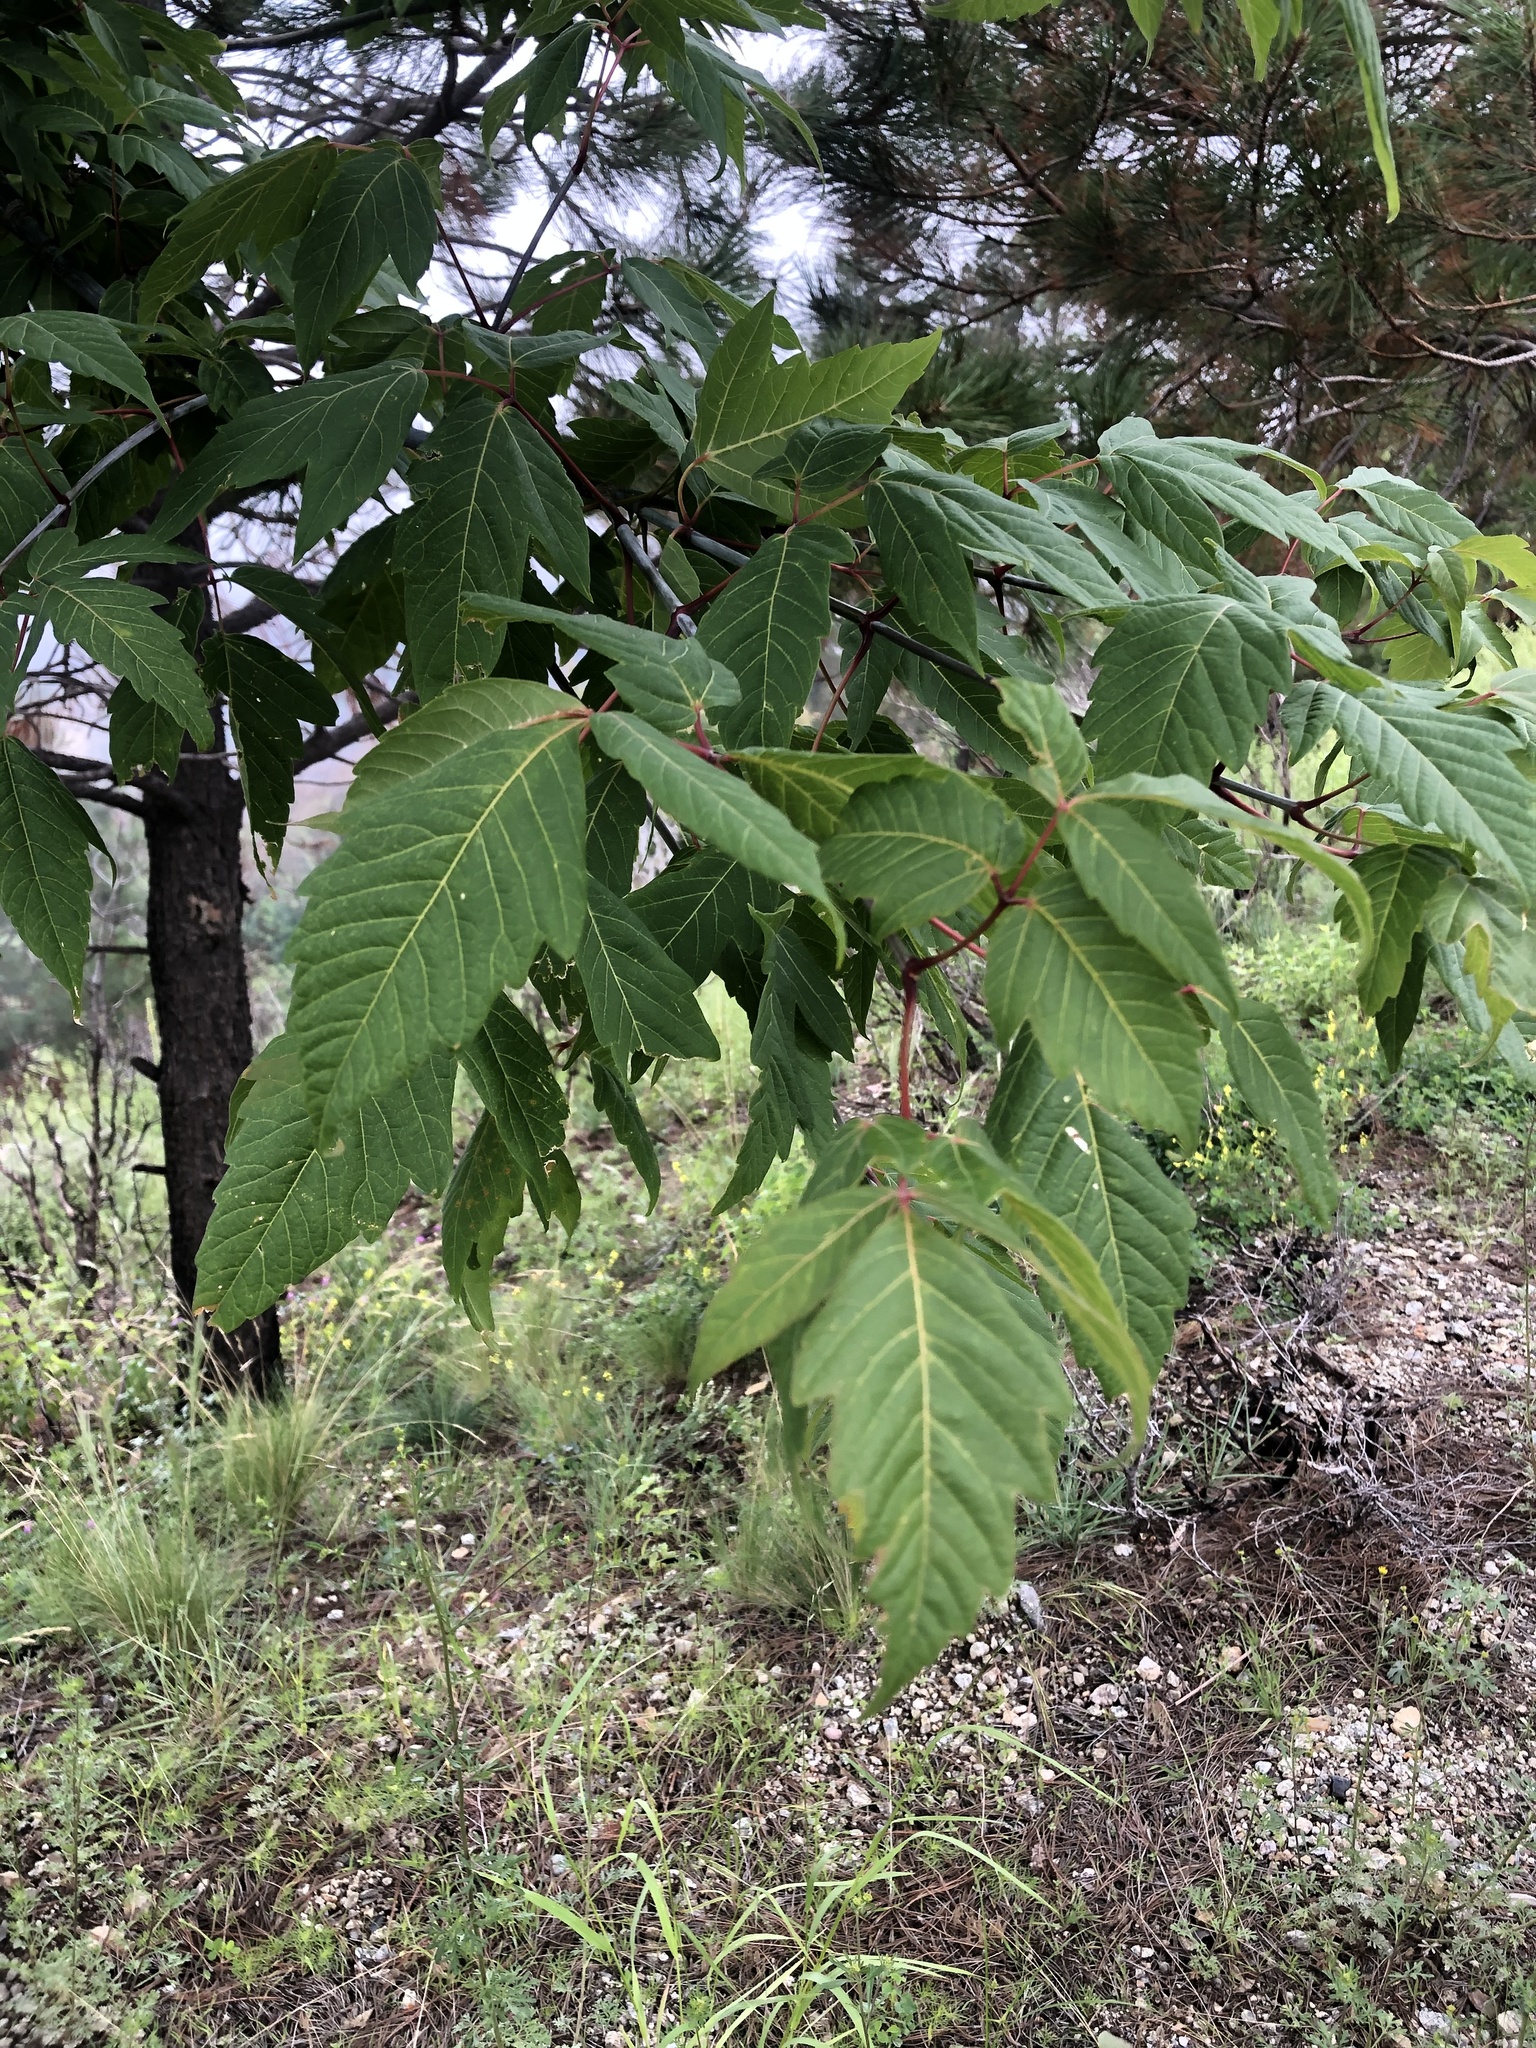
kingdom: Plantae
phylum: Tracheophyta
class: Magnoliopsida
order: Sapindales
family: Sapindaceae
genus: Acer
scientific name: Acer negundo
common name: Ashleaf maple
